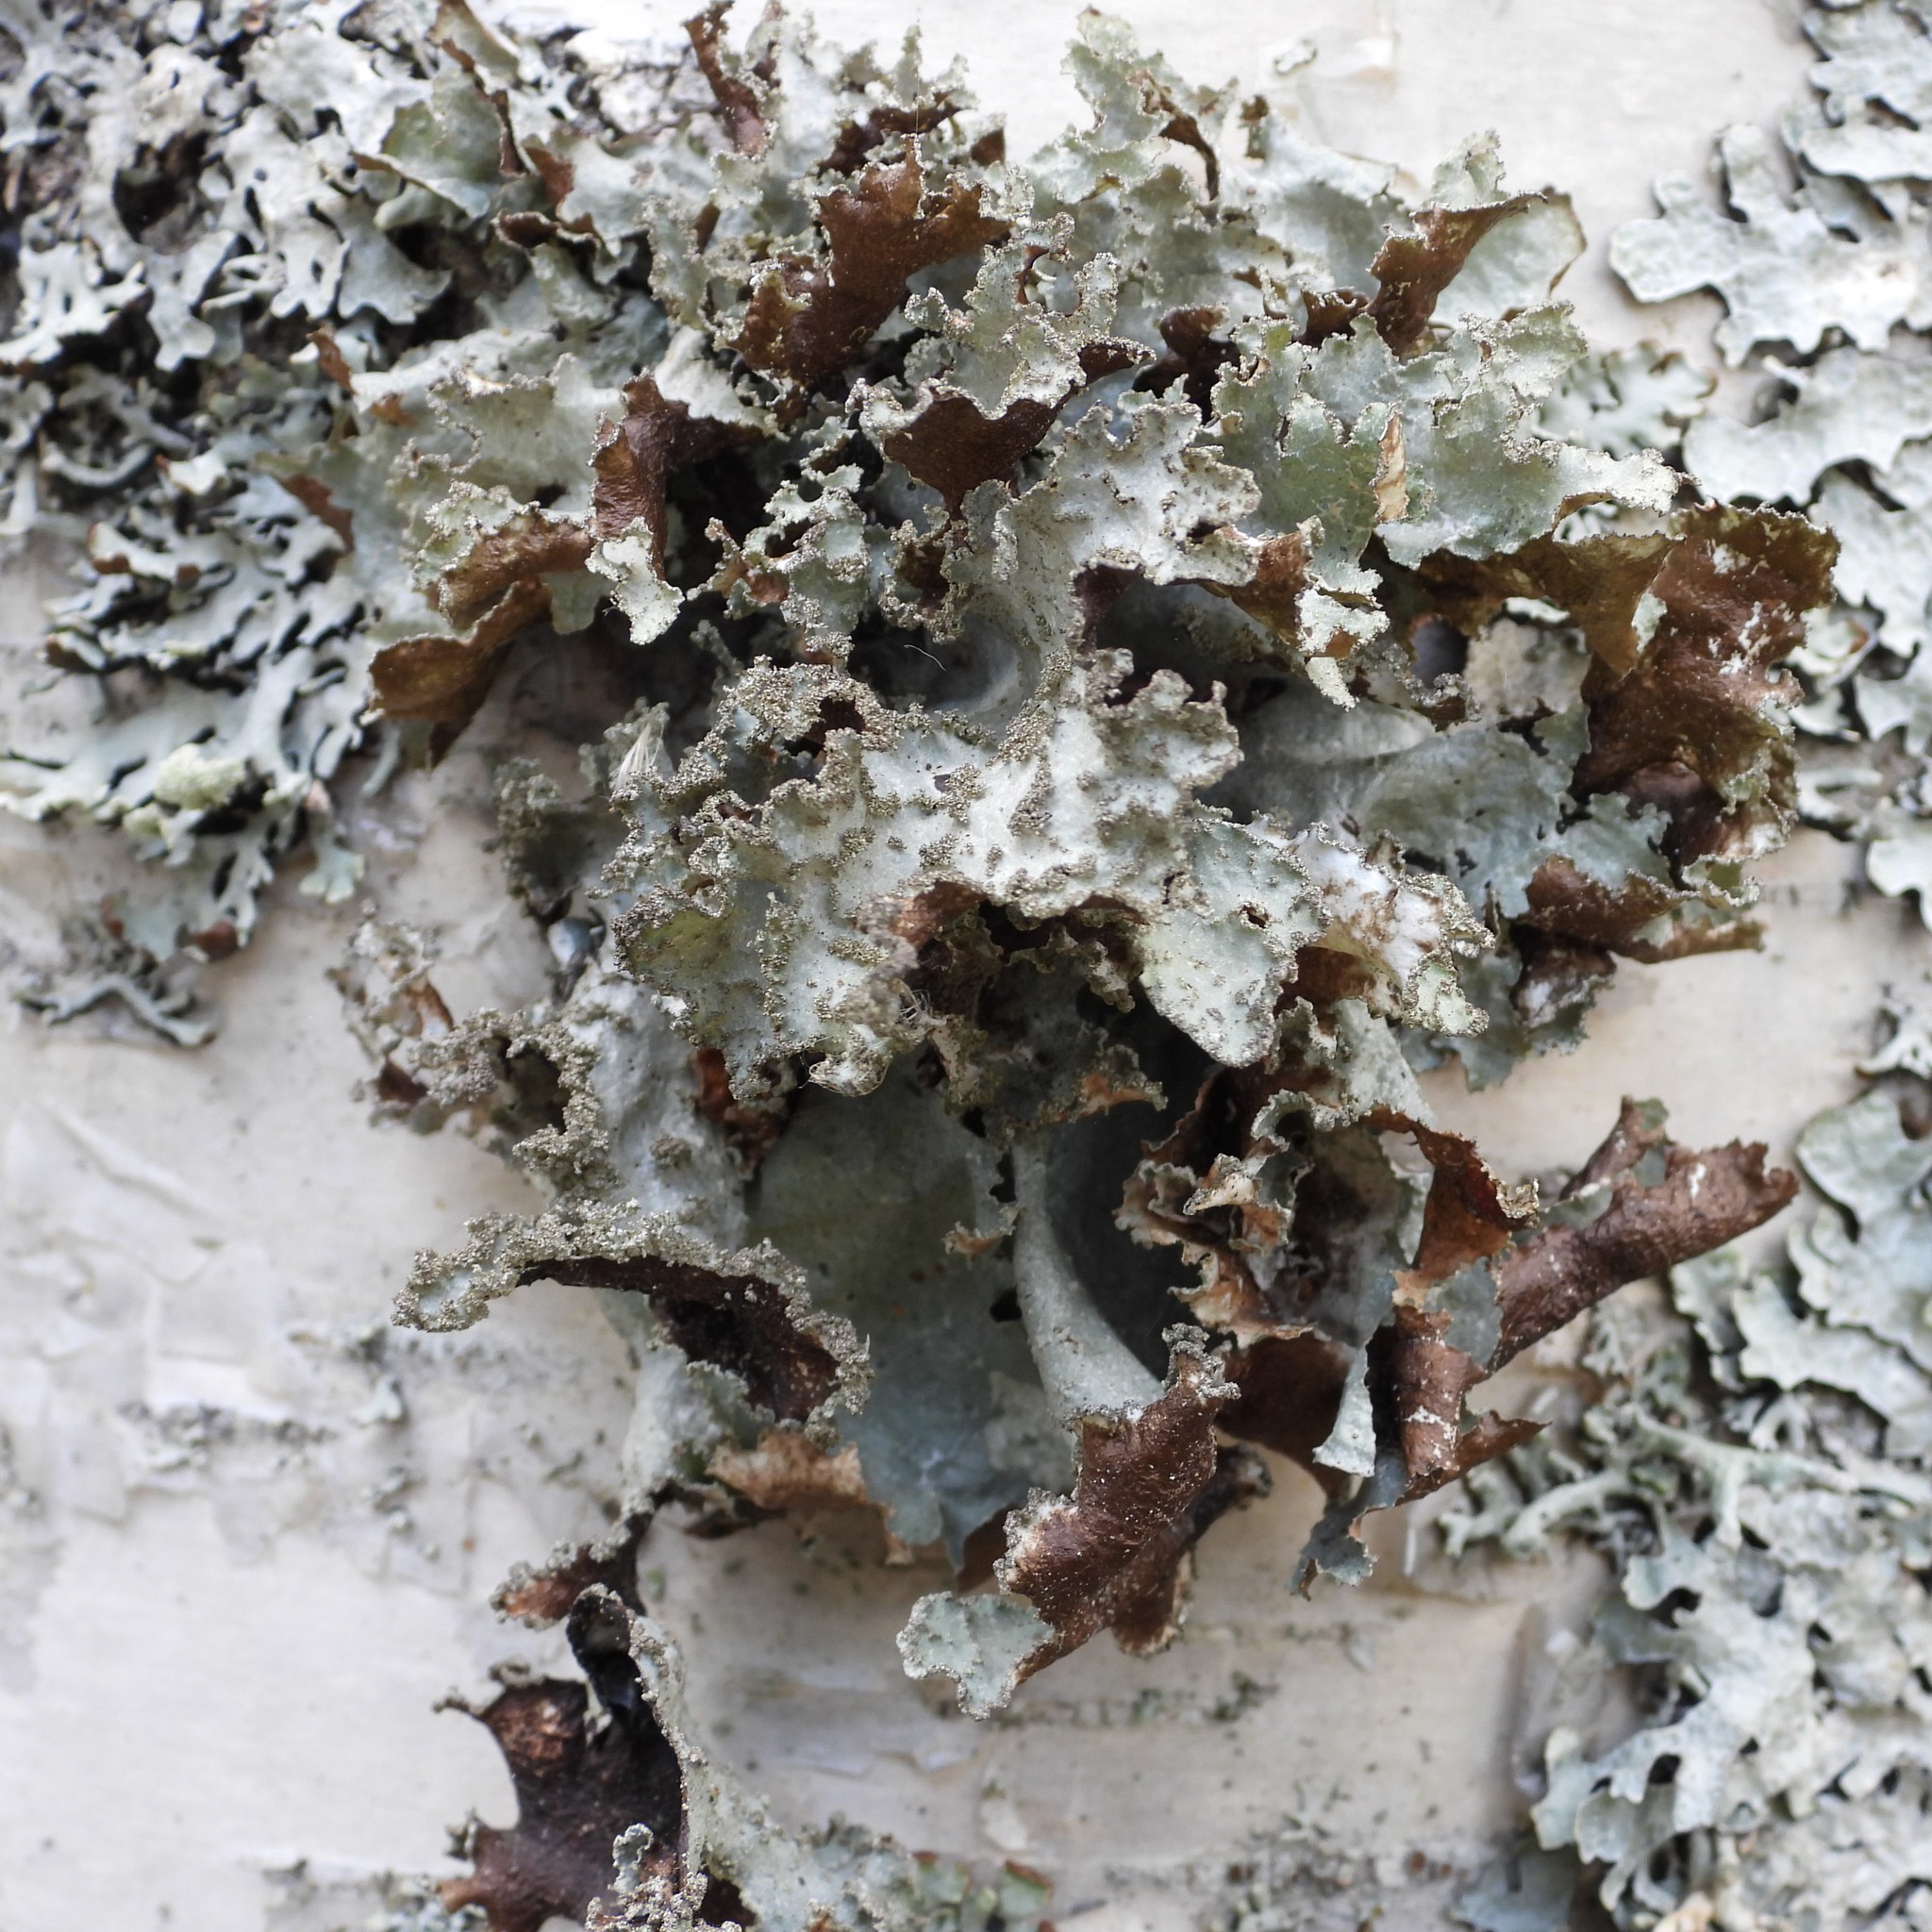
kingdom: Fungi
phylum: Ascomycota
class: Lecanoromycetes
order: Lecanorales
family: Parmeliaceae
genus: Platismatia
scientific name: Platismatia glauca
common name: Varied rag lichen
